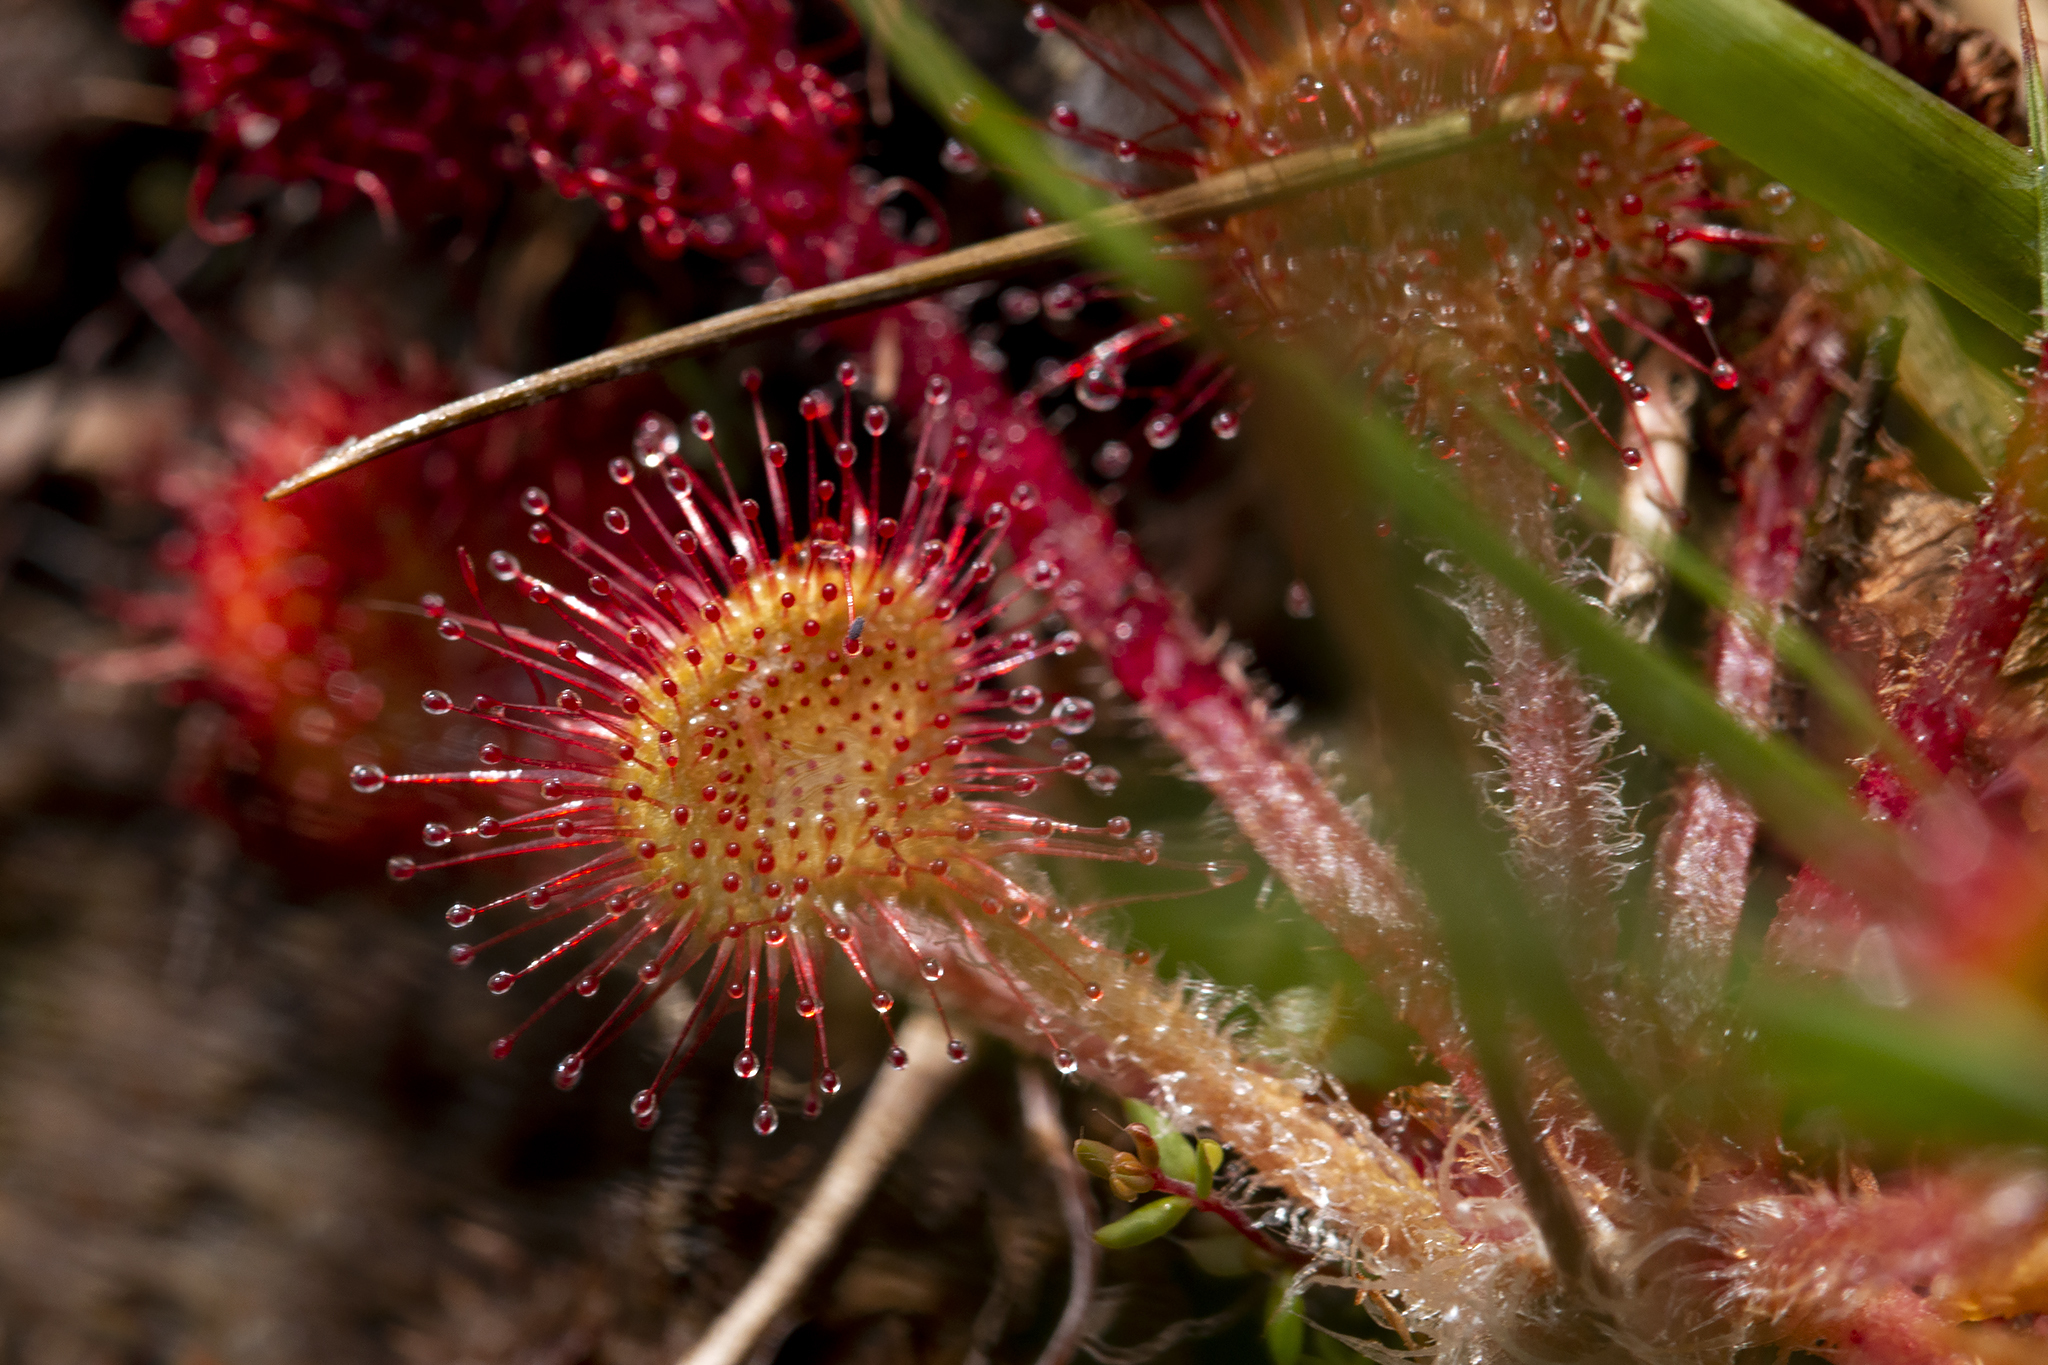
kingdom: Plantae
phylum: Tracheophyta
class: Magnoliopsida
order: Caryophyllales
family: Droseraceae
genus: Drosera
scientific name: Drosera rotundifolia
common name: Round-leaved sundew
